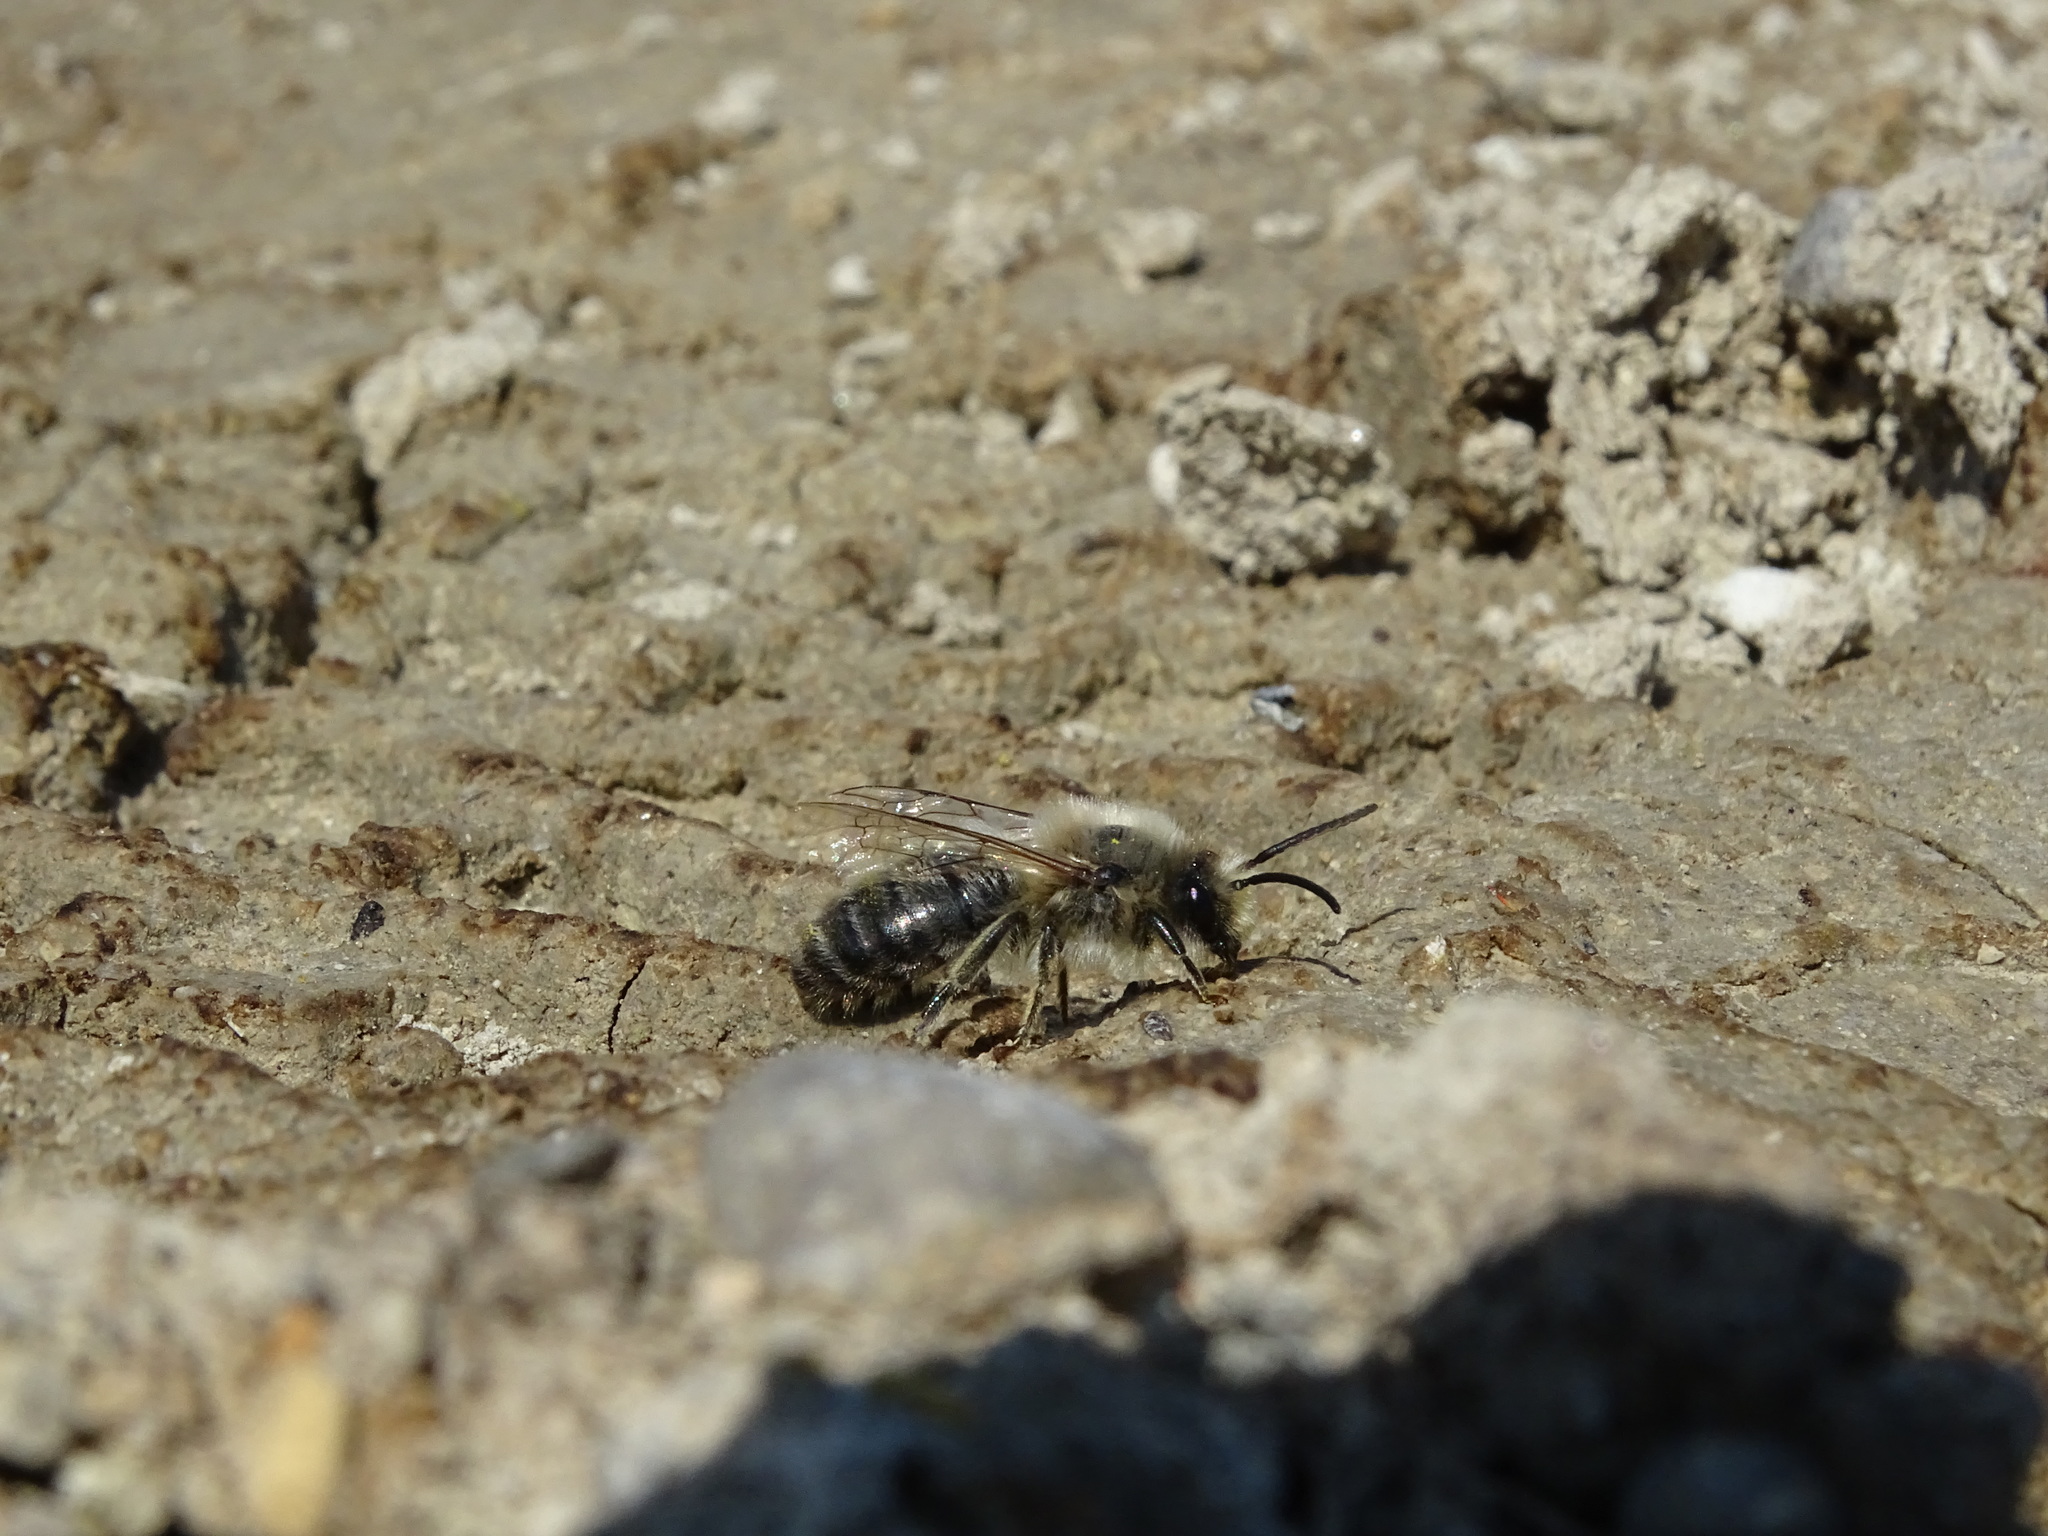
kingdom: Animalia
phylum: Arthropoda
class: Insecta
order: Hymenoptera
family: Colletidae
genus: Colletes
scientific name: Colletes cunicularius
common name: Early colletes
